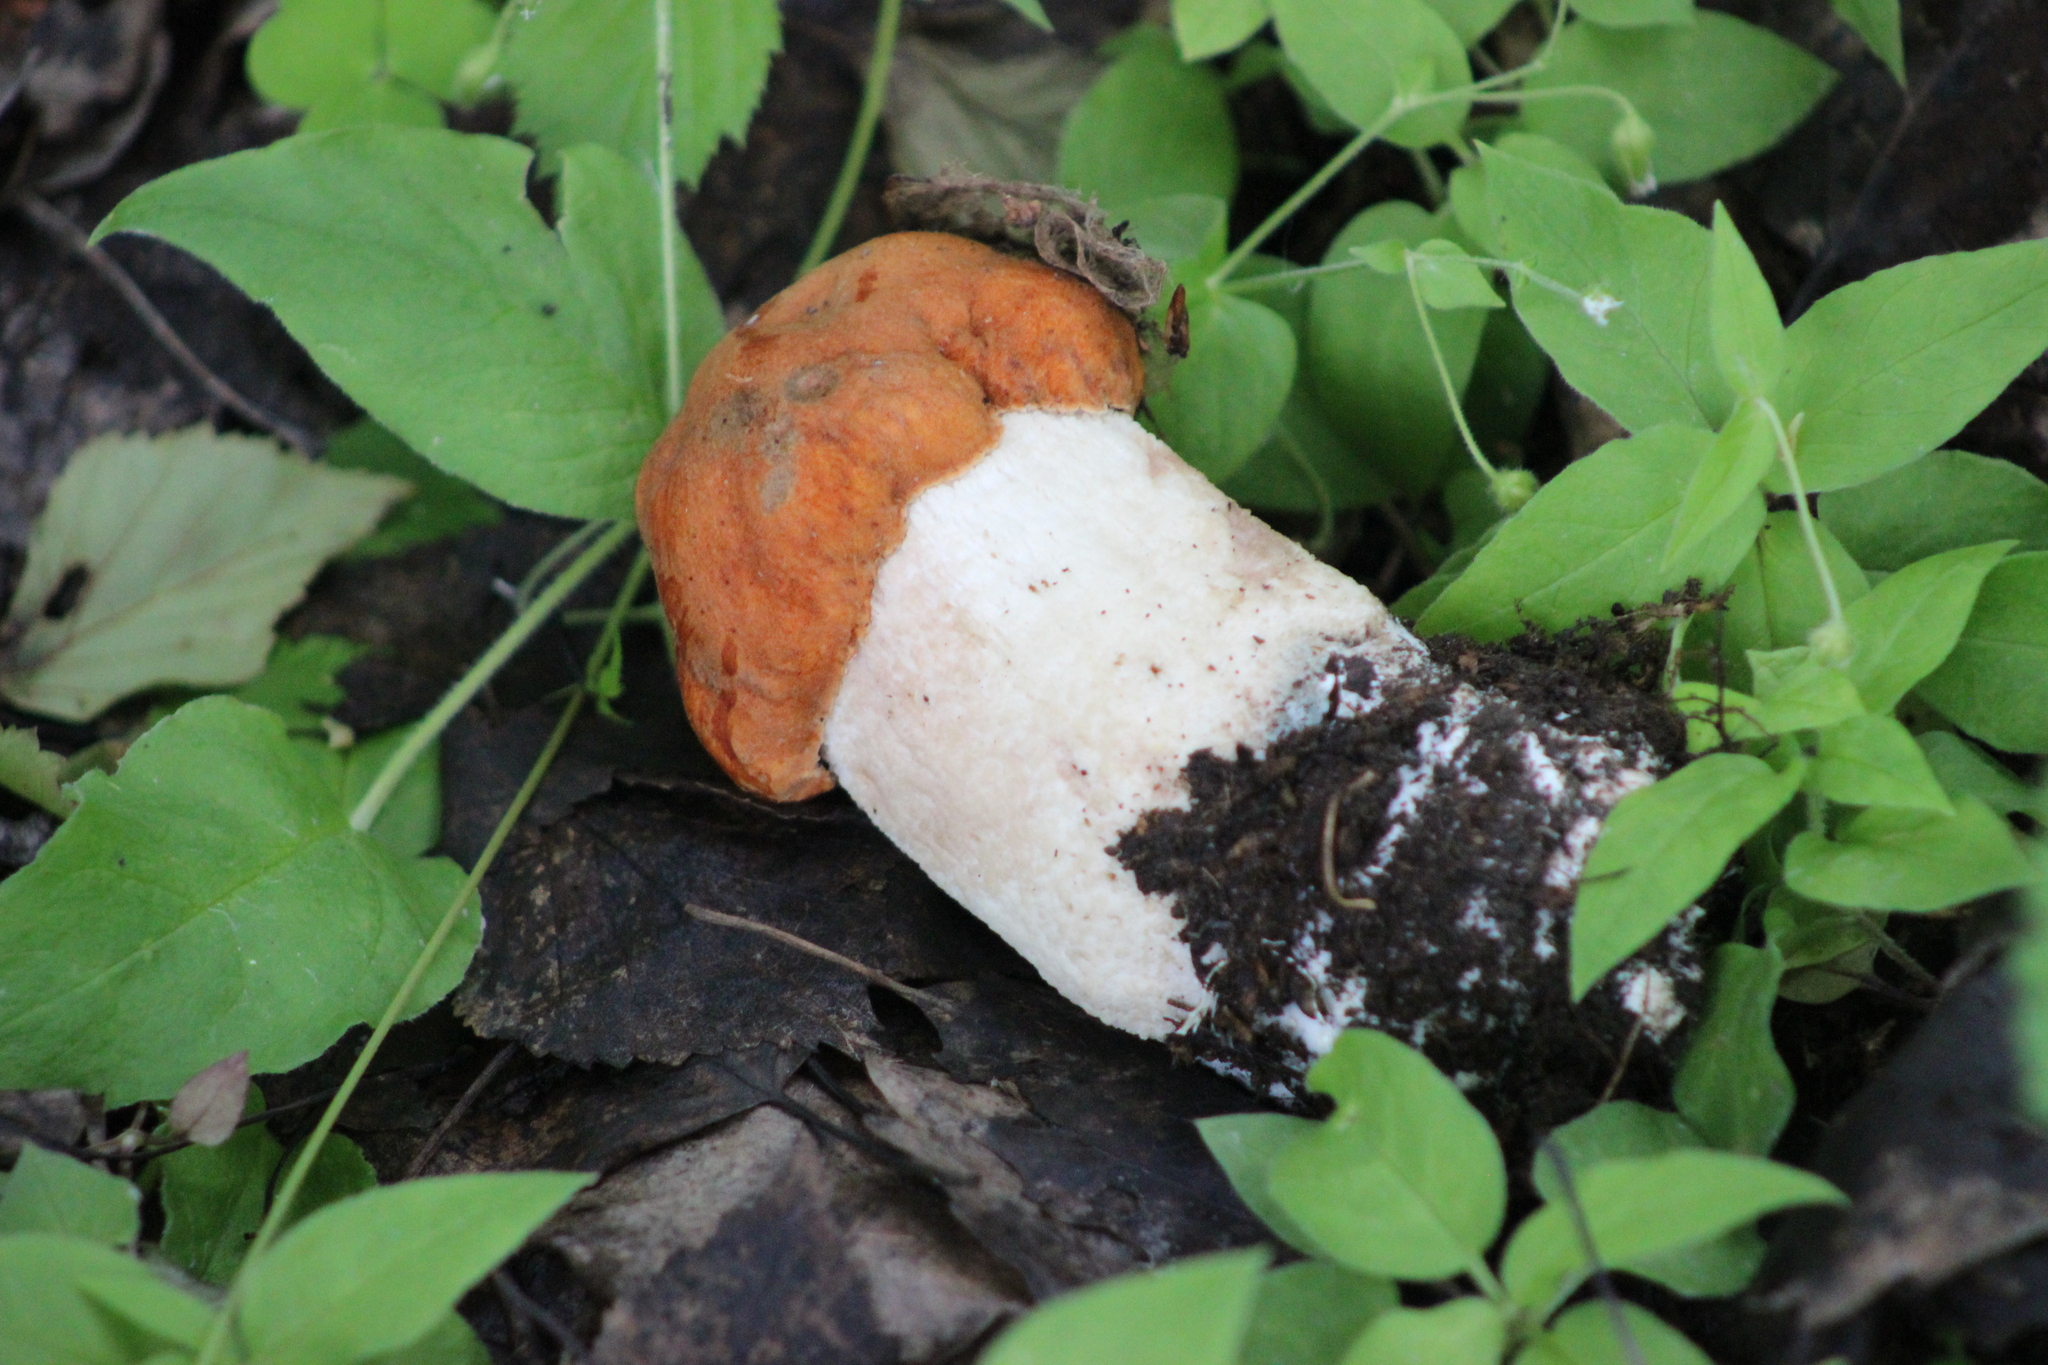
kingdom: Fungi
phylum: Basidiomycota
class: Agaricomycetes
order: Boletales
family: Boletaceae
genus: Leccinum
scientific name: Leccinum albostipitatum
